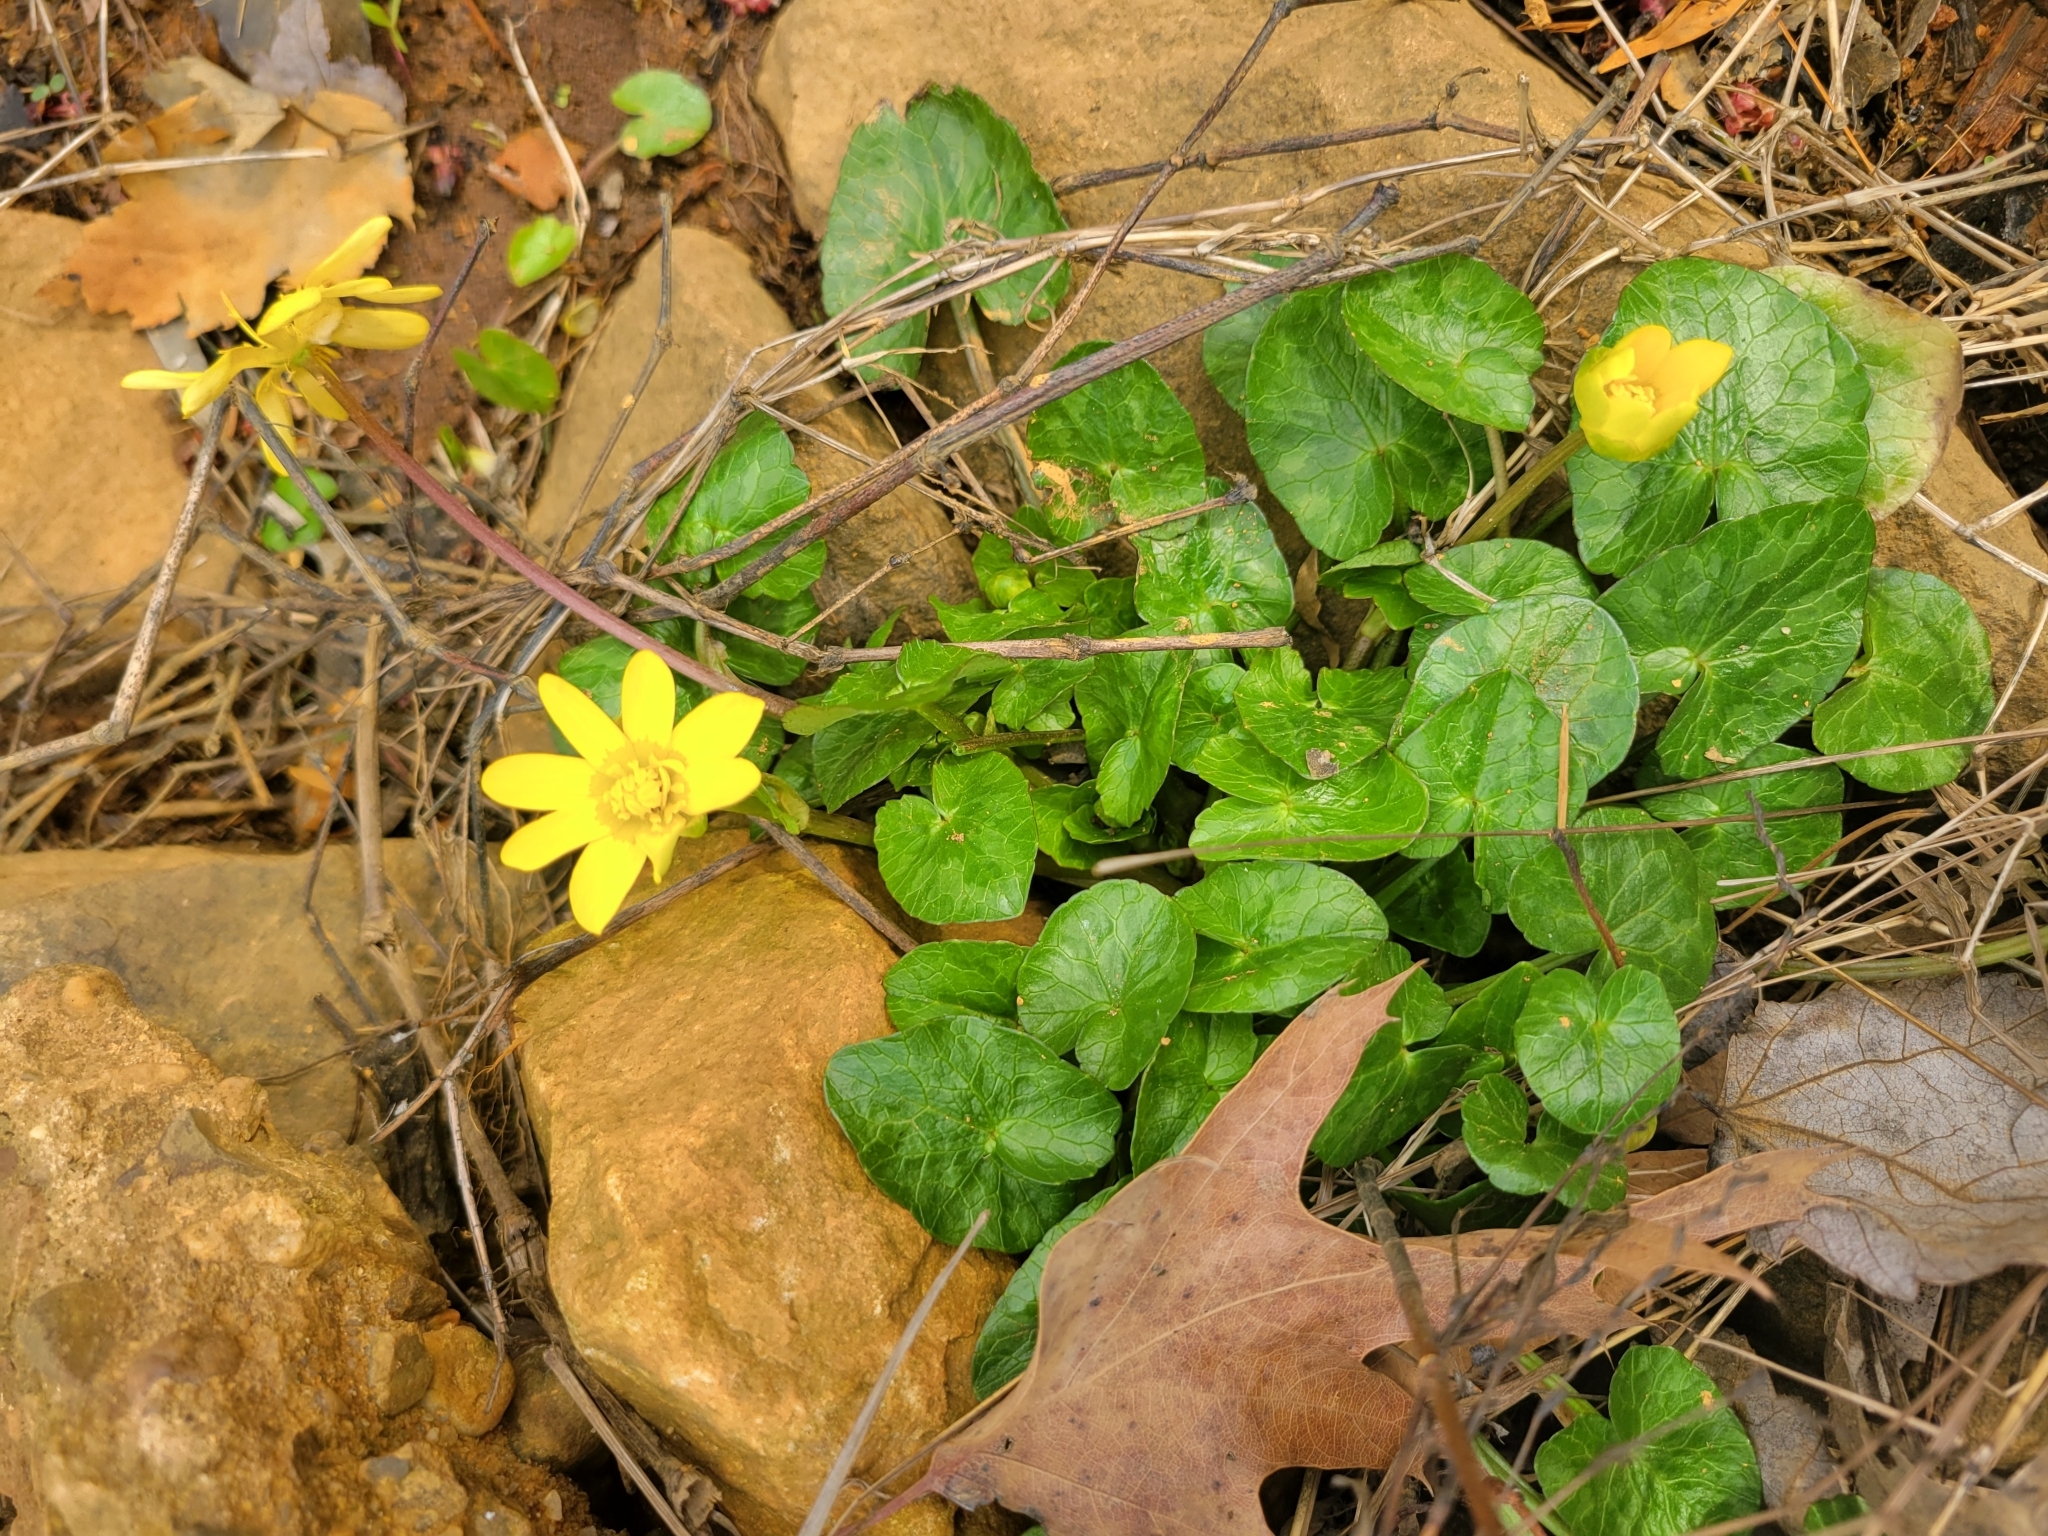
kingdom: Plantae
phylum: Tracheophyta
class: Magnoliopsida
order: Ranunculales
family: Ranunculaceae
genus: Ficaria
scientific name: Ficaria verna
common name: Lesser celandine
